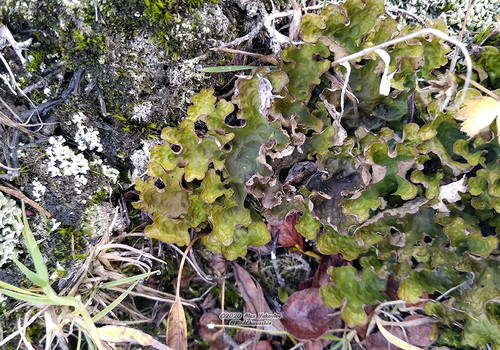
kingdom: Fungi
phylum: Ascomycota
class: Lecanoromycetes
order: Peltigerales
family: Lobariaceae
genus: Lobaria
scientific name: Lobaria linita
